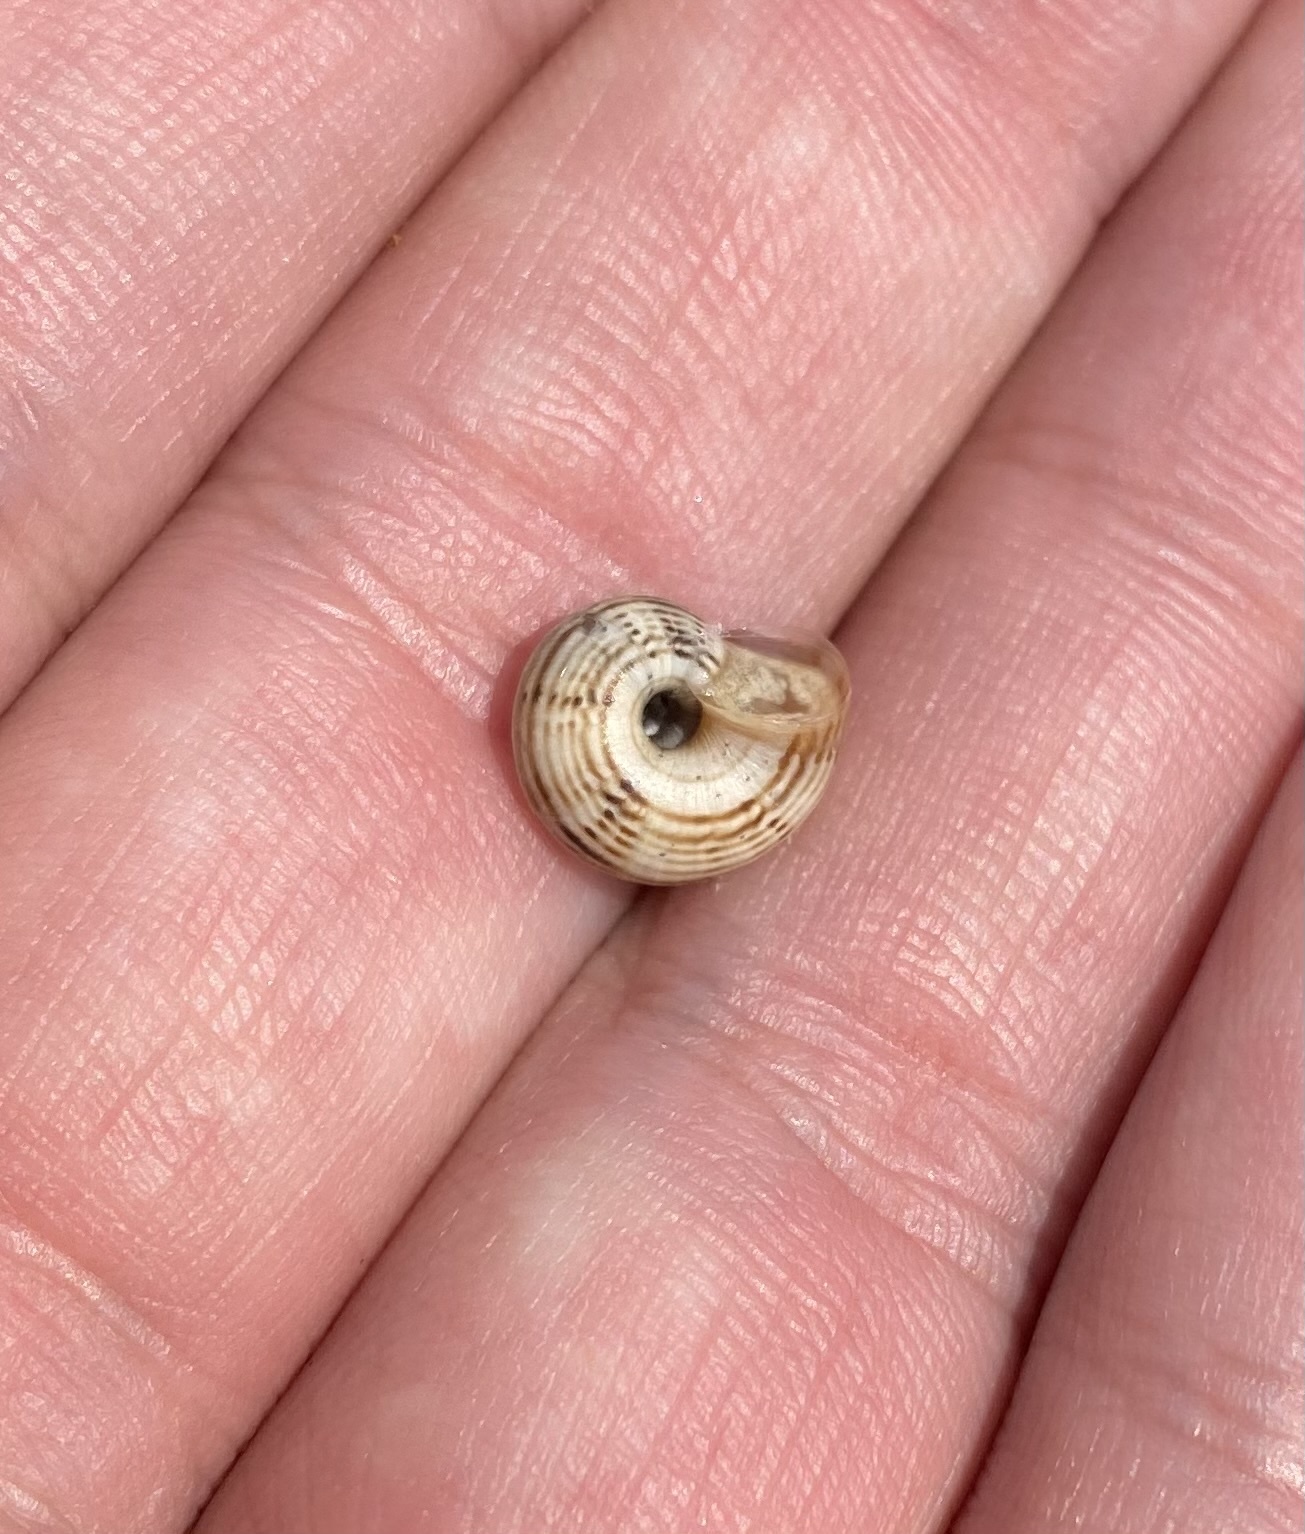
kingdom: Animalia
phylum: Mollusca
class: Gastropoda
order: Stylommatophora
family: Geomitridae
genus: Xeropicta
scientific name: Xeropicta derbentina
